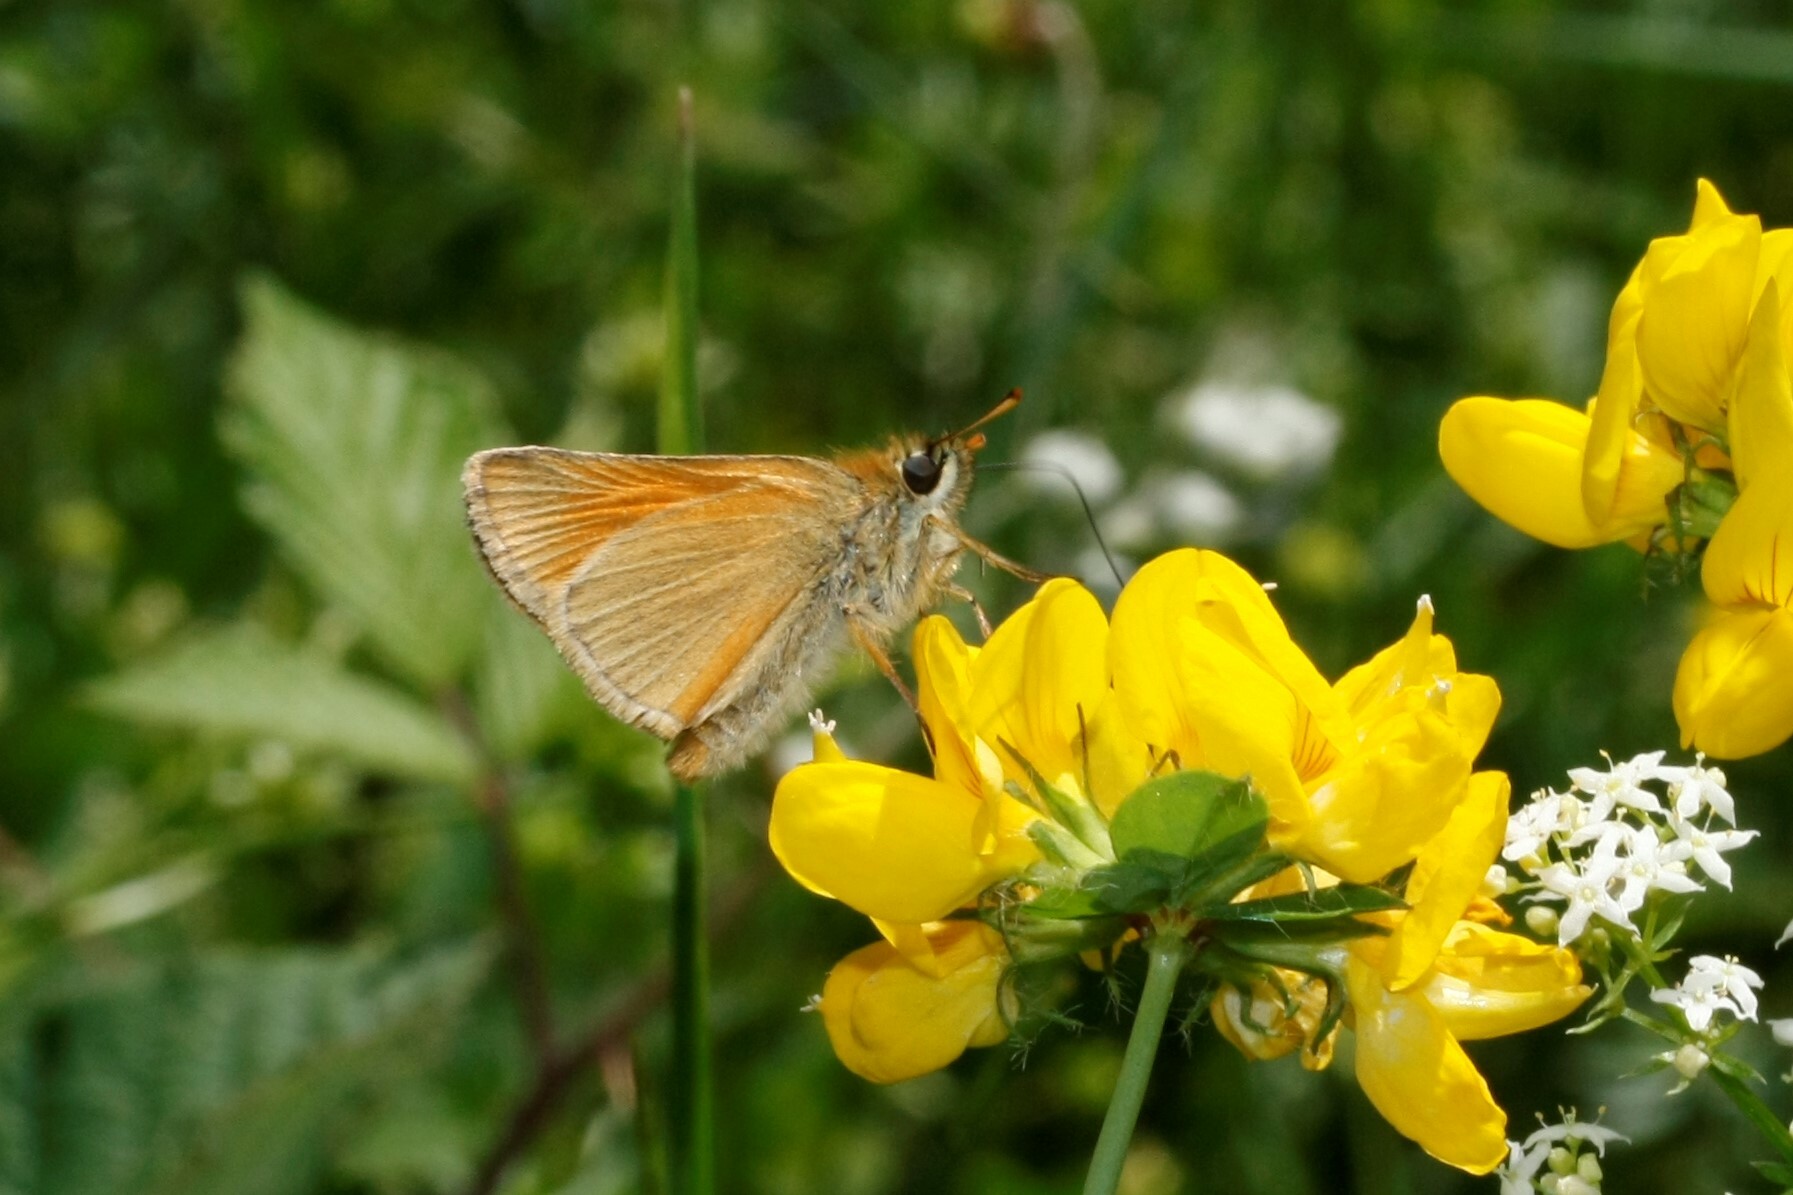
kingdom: Animalia
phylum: Arthropoda
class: Insecta
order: Lepidoptera
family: Hesperiidae
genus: Thymelicus
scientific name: Thymelicus sylvestris
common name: Small skipper
